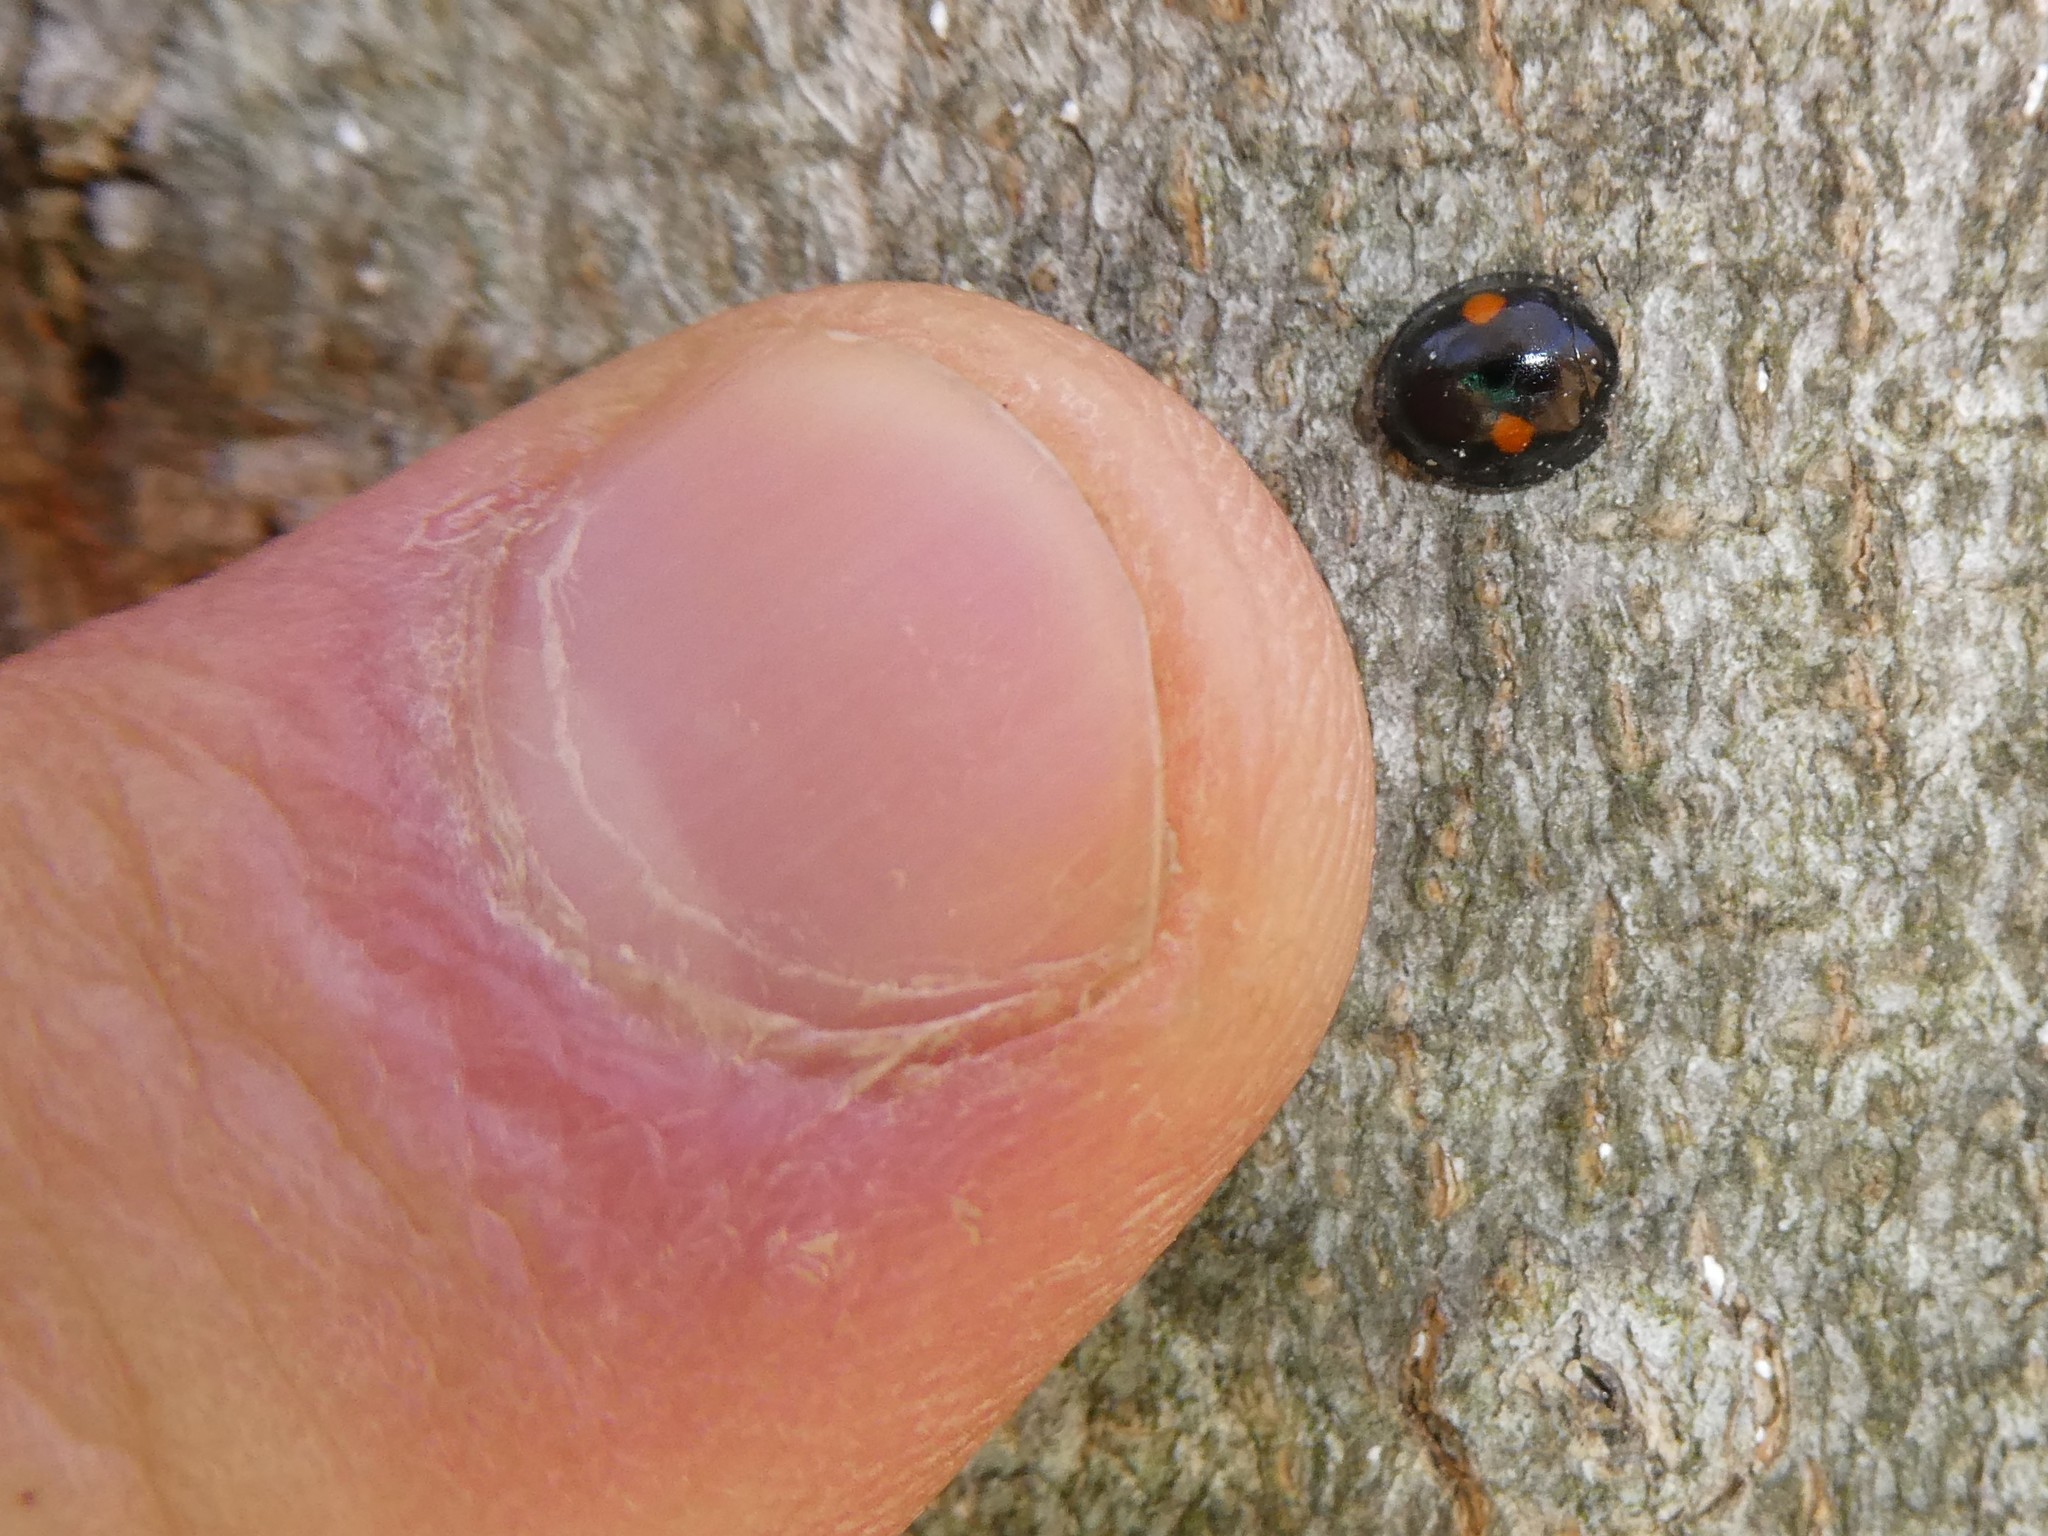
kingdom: Animalia
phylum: Arthropoda
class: Insecta
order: Coleoptera
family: Coccinellidae
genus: Chilocorus
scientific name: Chilocorus stigma
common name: Twicestabbed lady beetle
